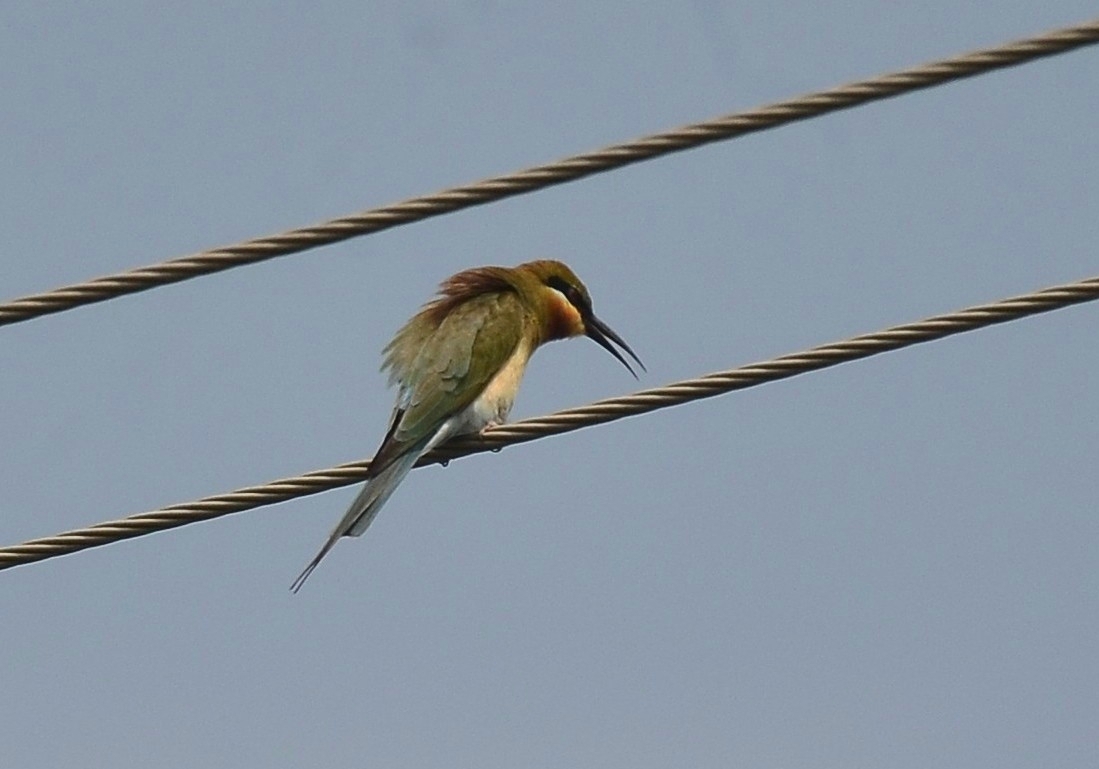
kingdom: Animalia
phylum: Chordata
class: Aves
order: Coraciiformes
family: Meropidae
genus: Merops
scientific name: Merops philippinus
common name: Blue-tailed bee-eater
